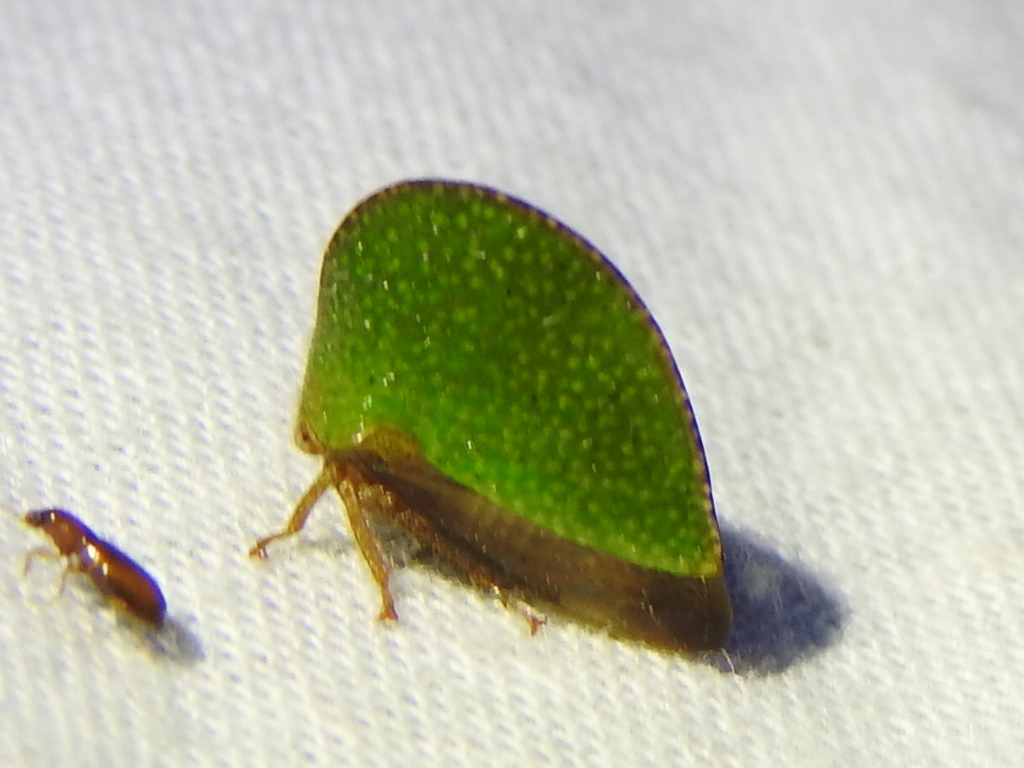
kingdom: Animalia
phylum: Arthropoda
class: Insecta
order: Hemiptera
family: Membracidae
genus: Archasia
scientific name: Archasia auriculata
